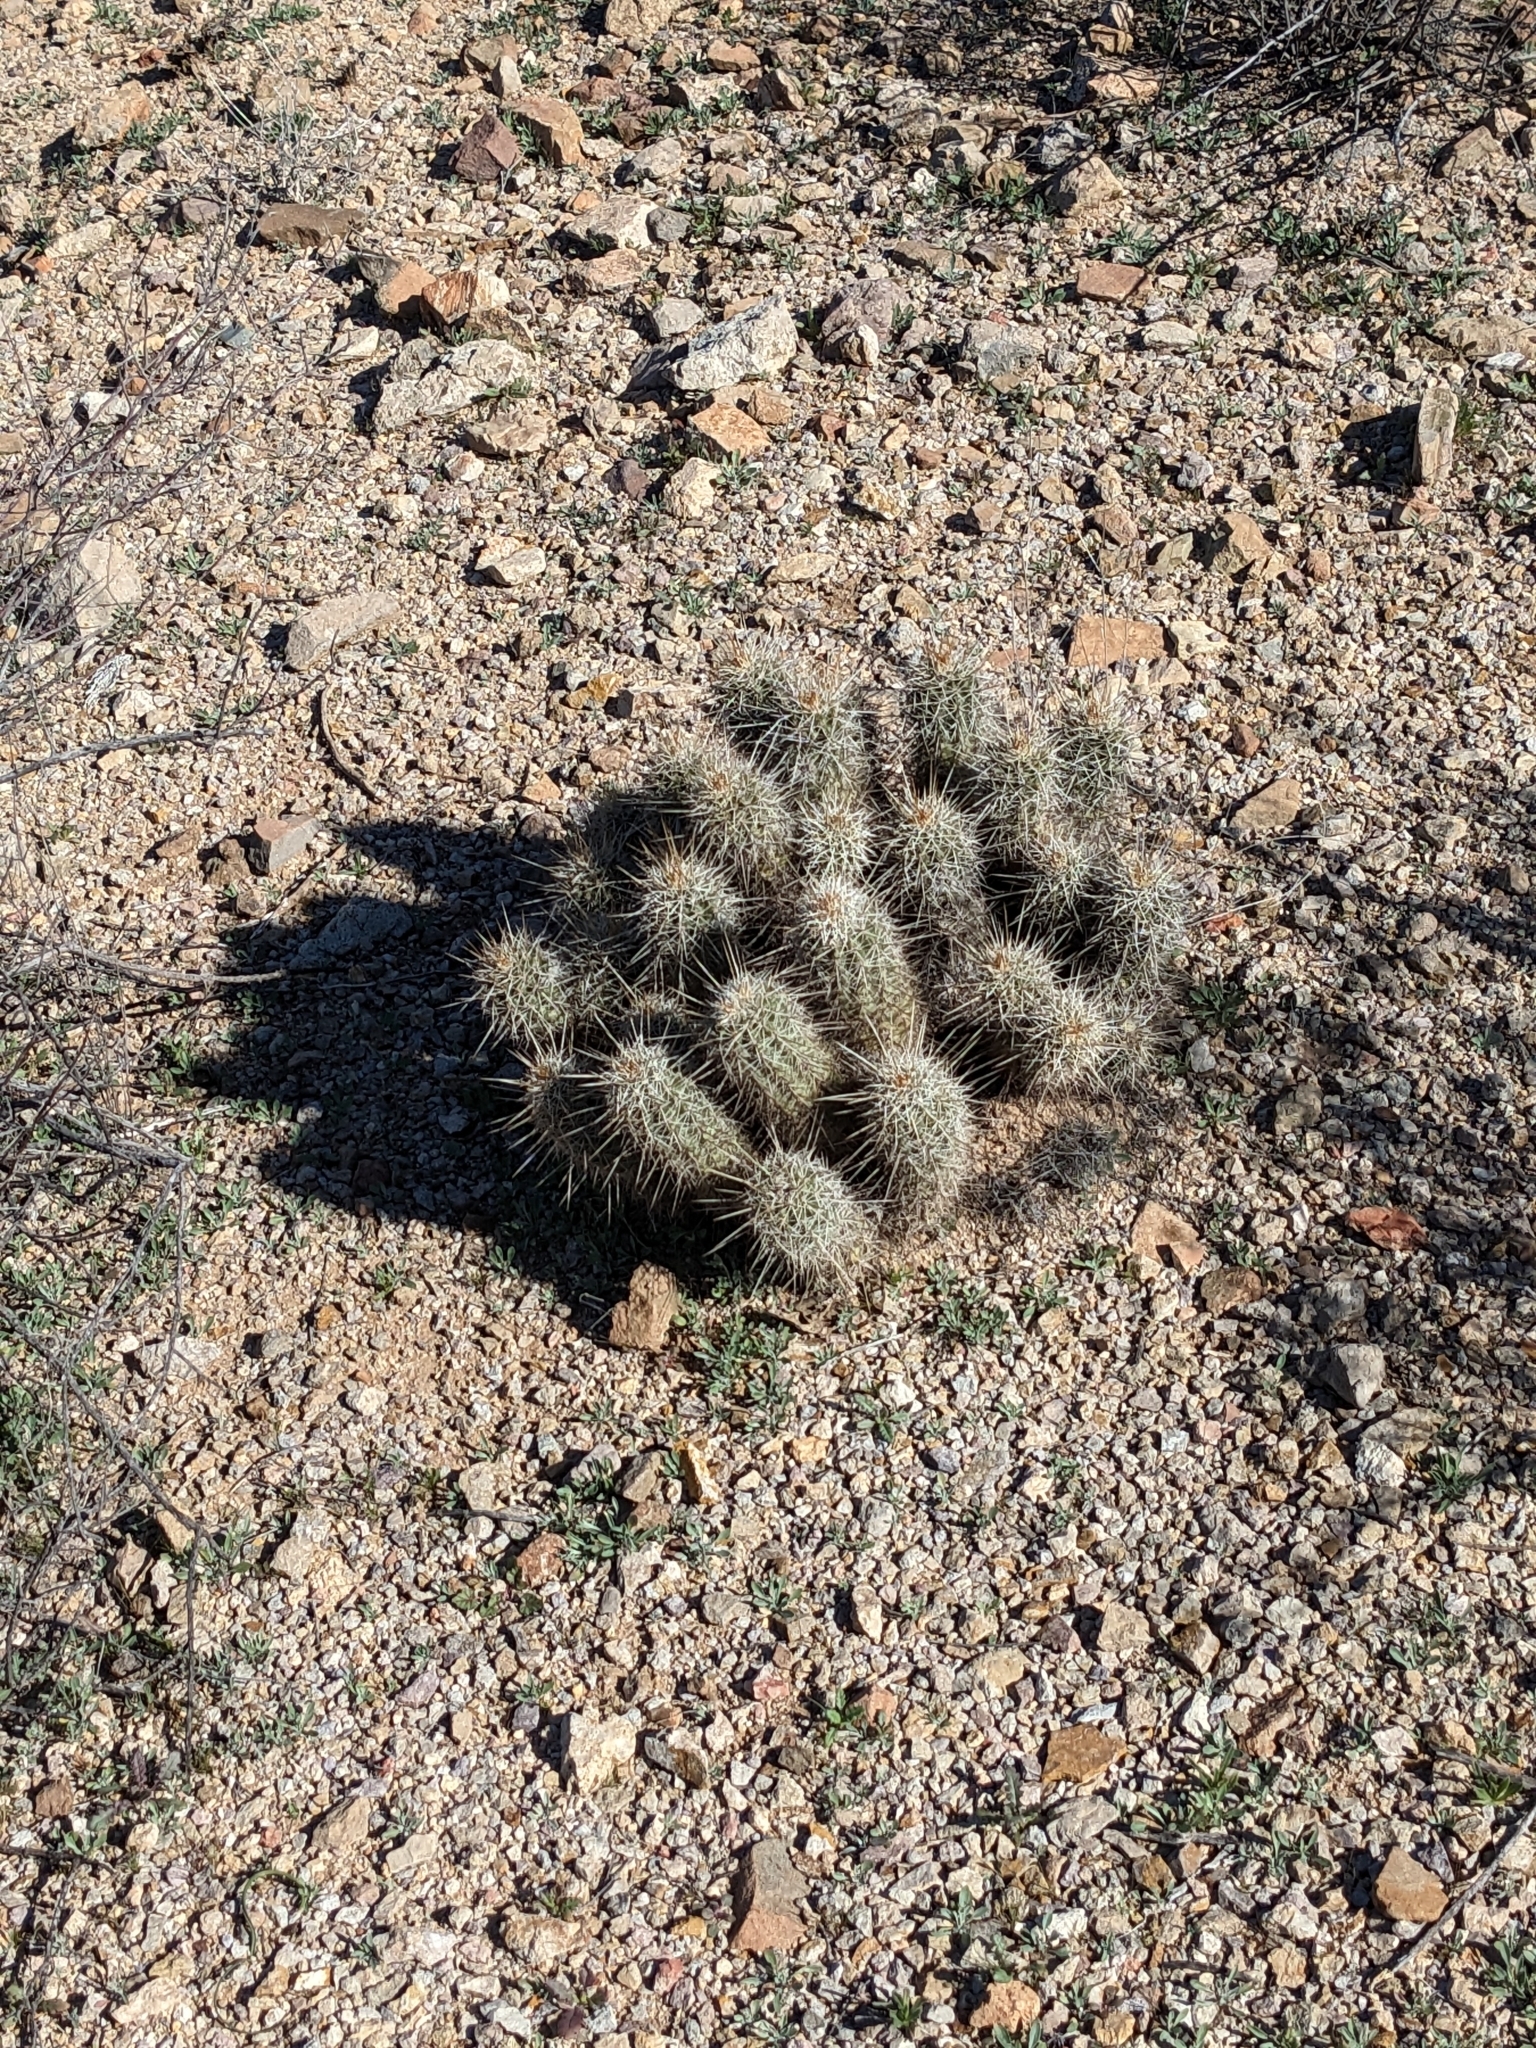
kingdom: Plantae
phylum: Tracheophyta
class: Magnoliopsida
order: Caryophyllales
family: Cactaceae
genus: Echinocereus
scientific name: Echinocereus fasciculatus
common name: Bundle hedgehog
